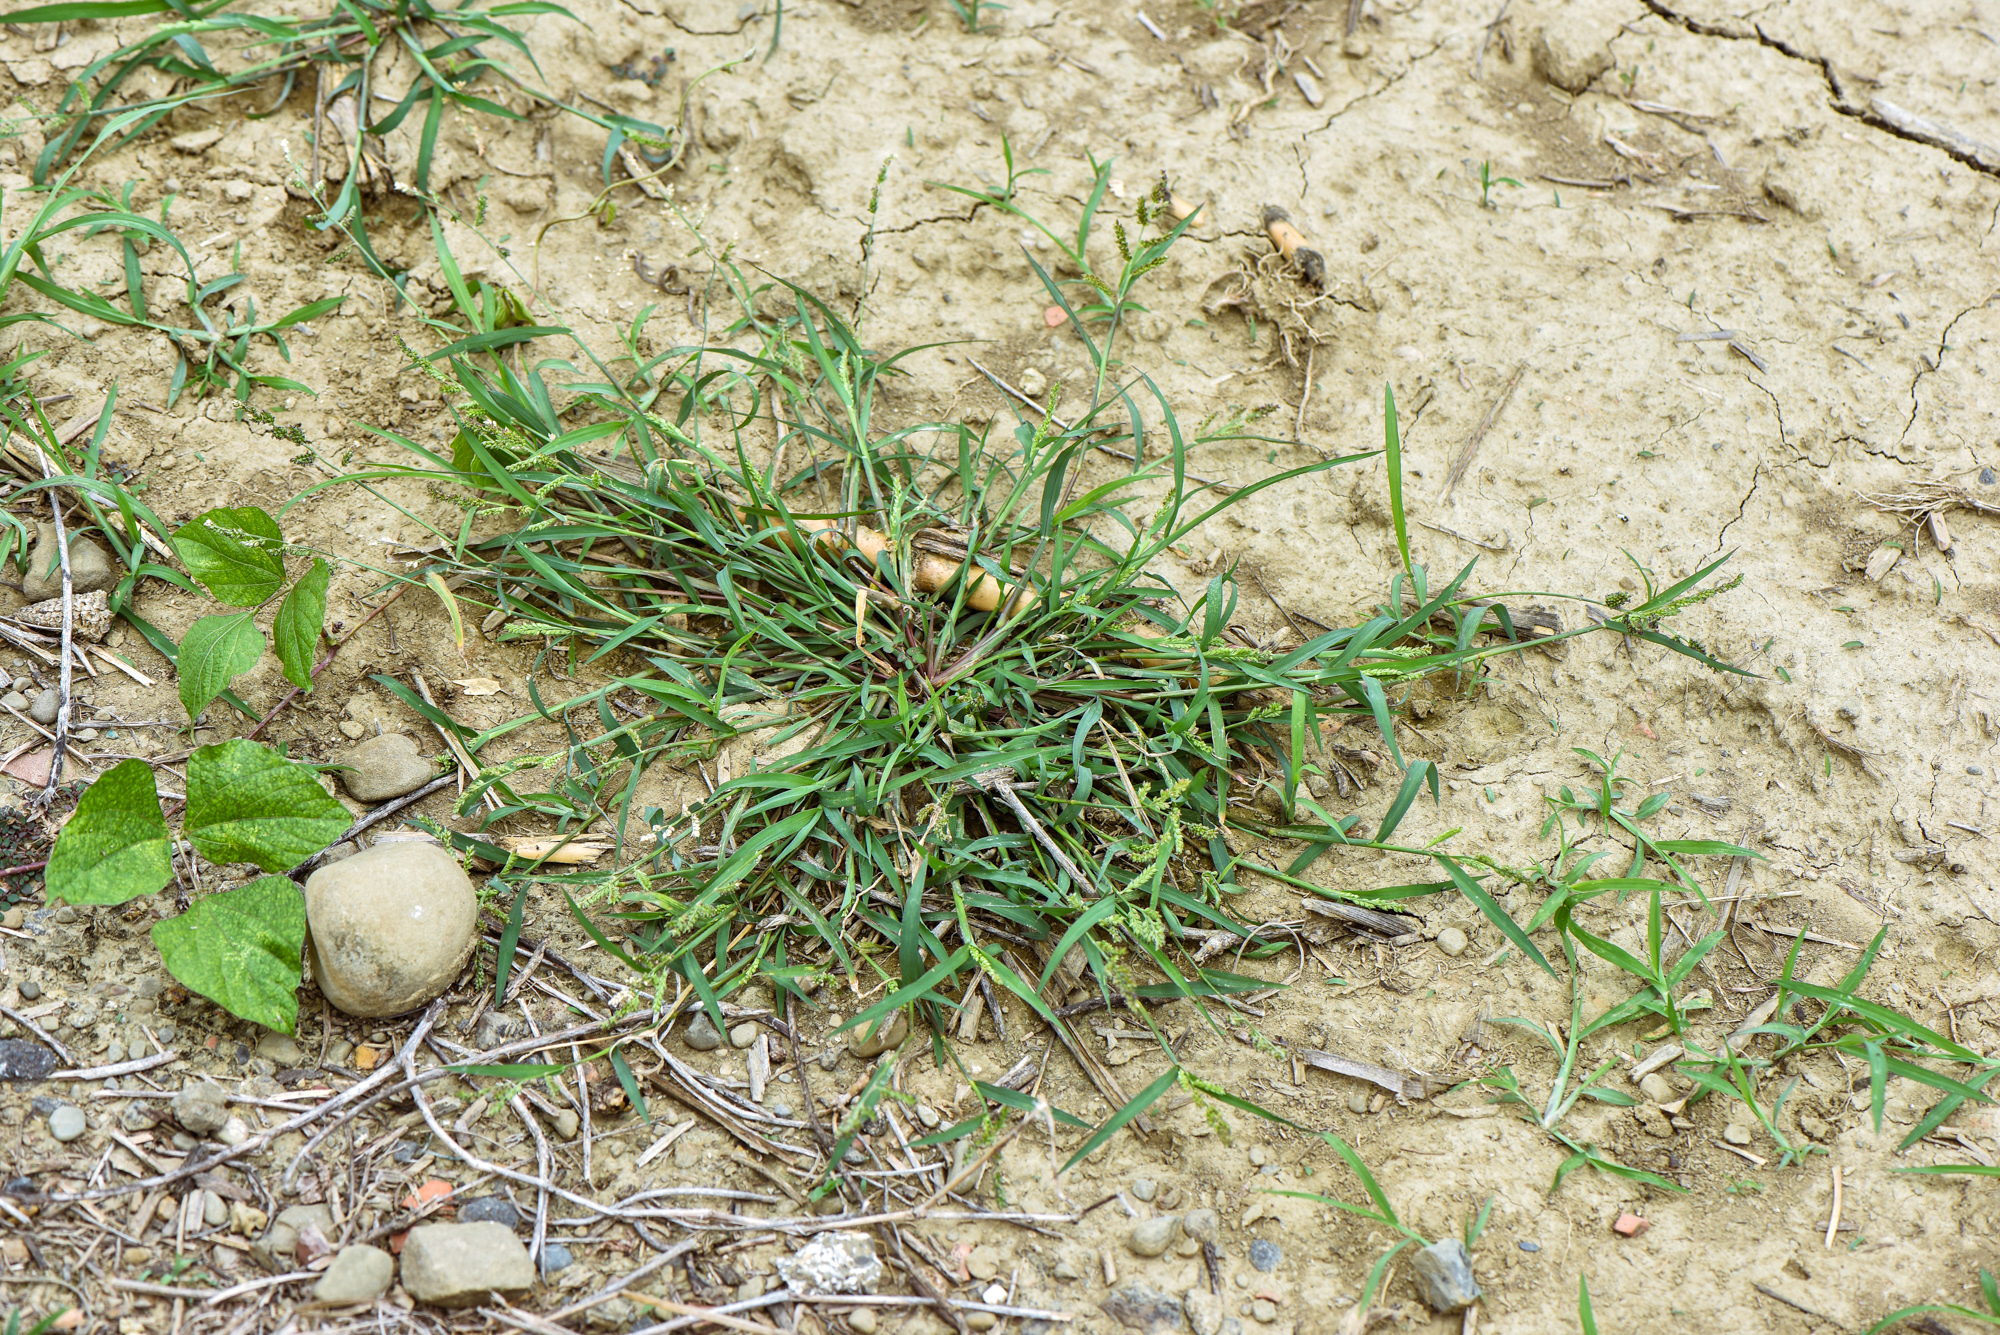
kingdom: Plantae
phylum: Tracheophyta
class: Liliopsida
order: Poales
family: Poaceae
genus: Echinochloa
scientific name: Echinochloa colonum
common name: Jungle rice
